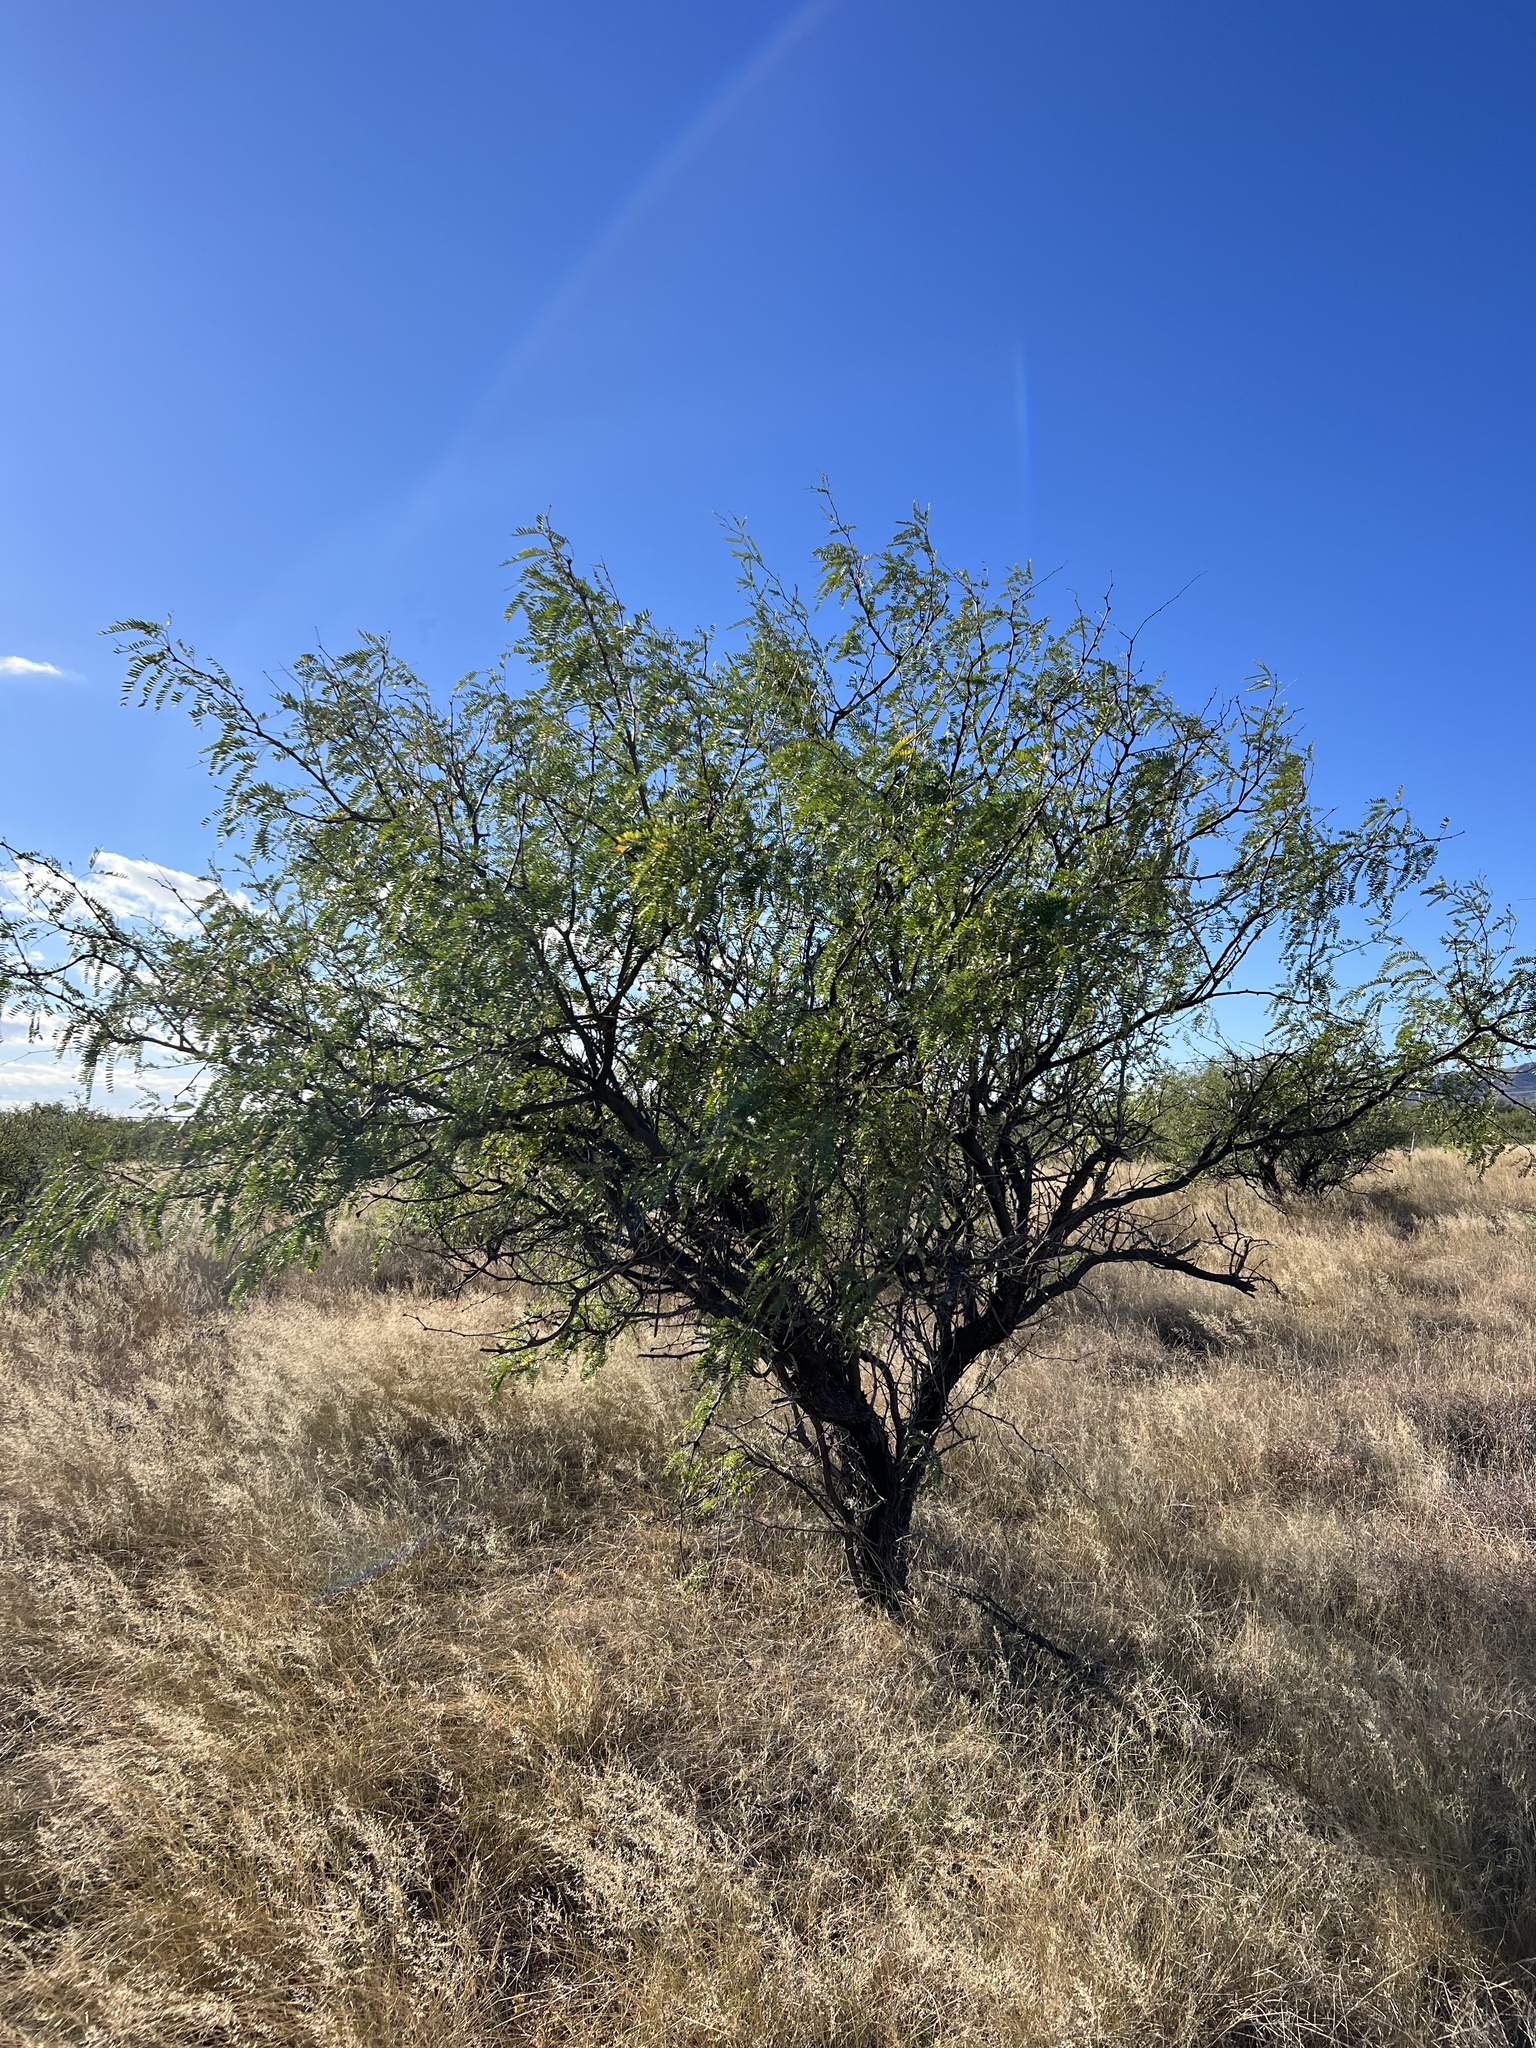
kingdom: Plantae
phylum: Tracheophyta
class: Magnoliopsida
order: Fabales
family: Fabaceae
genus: Prosopis
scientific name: Prosopis velutina
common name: Velvet mesquite
